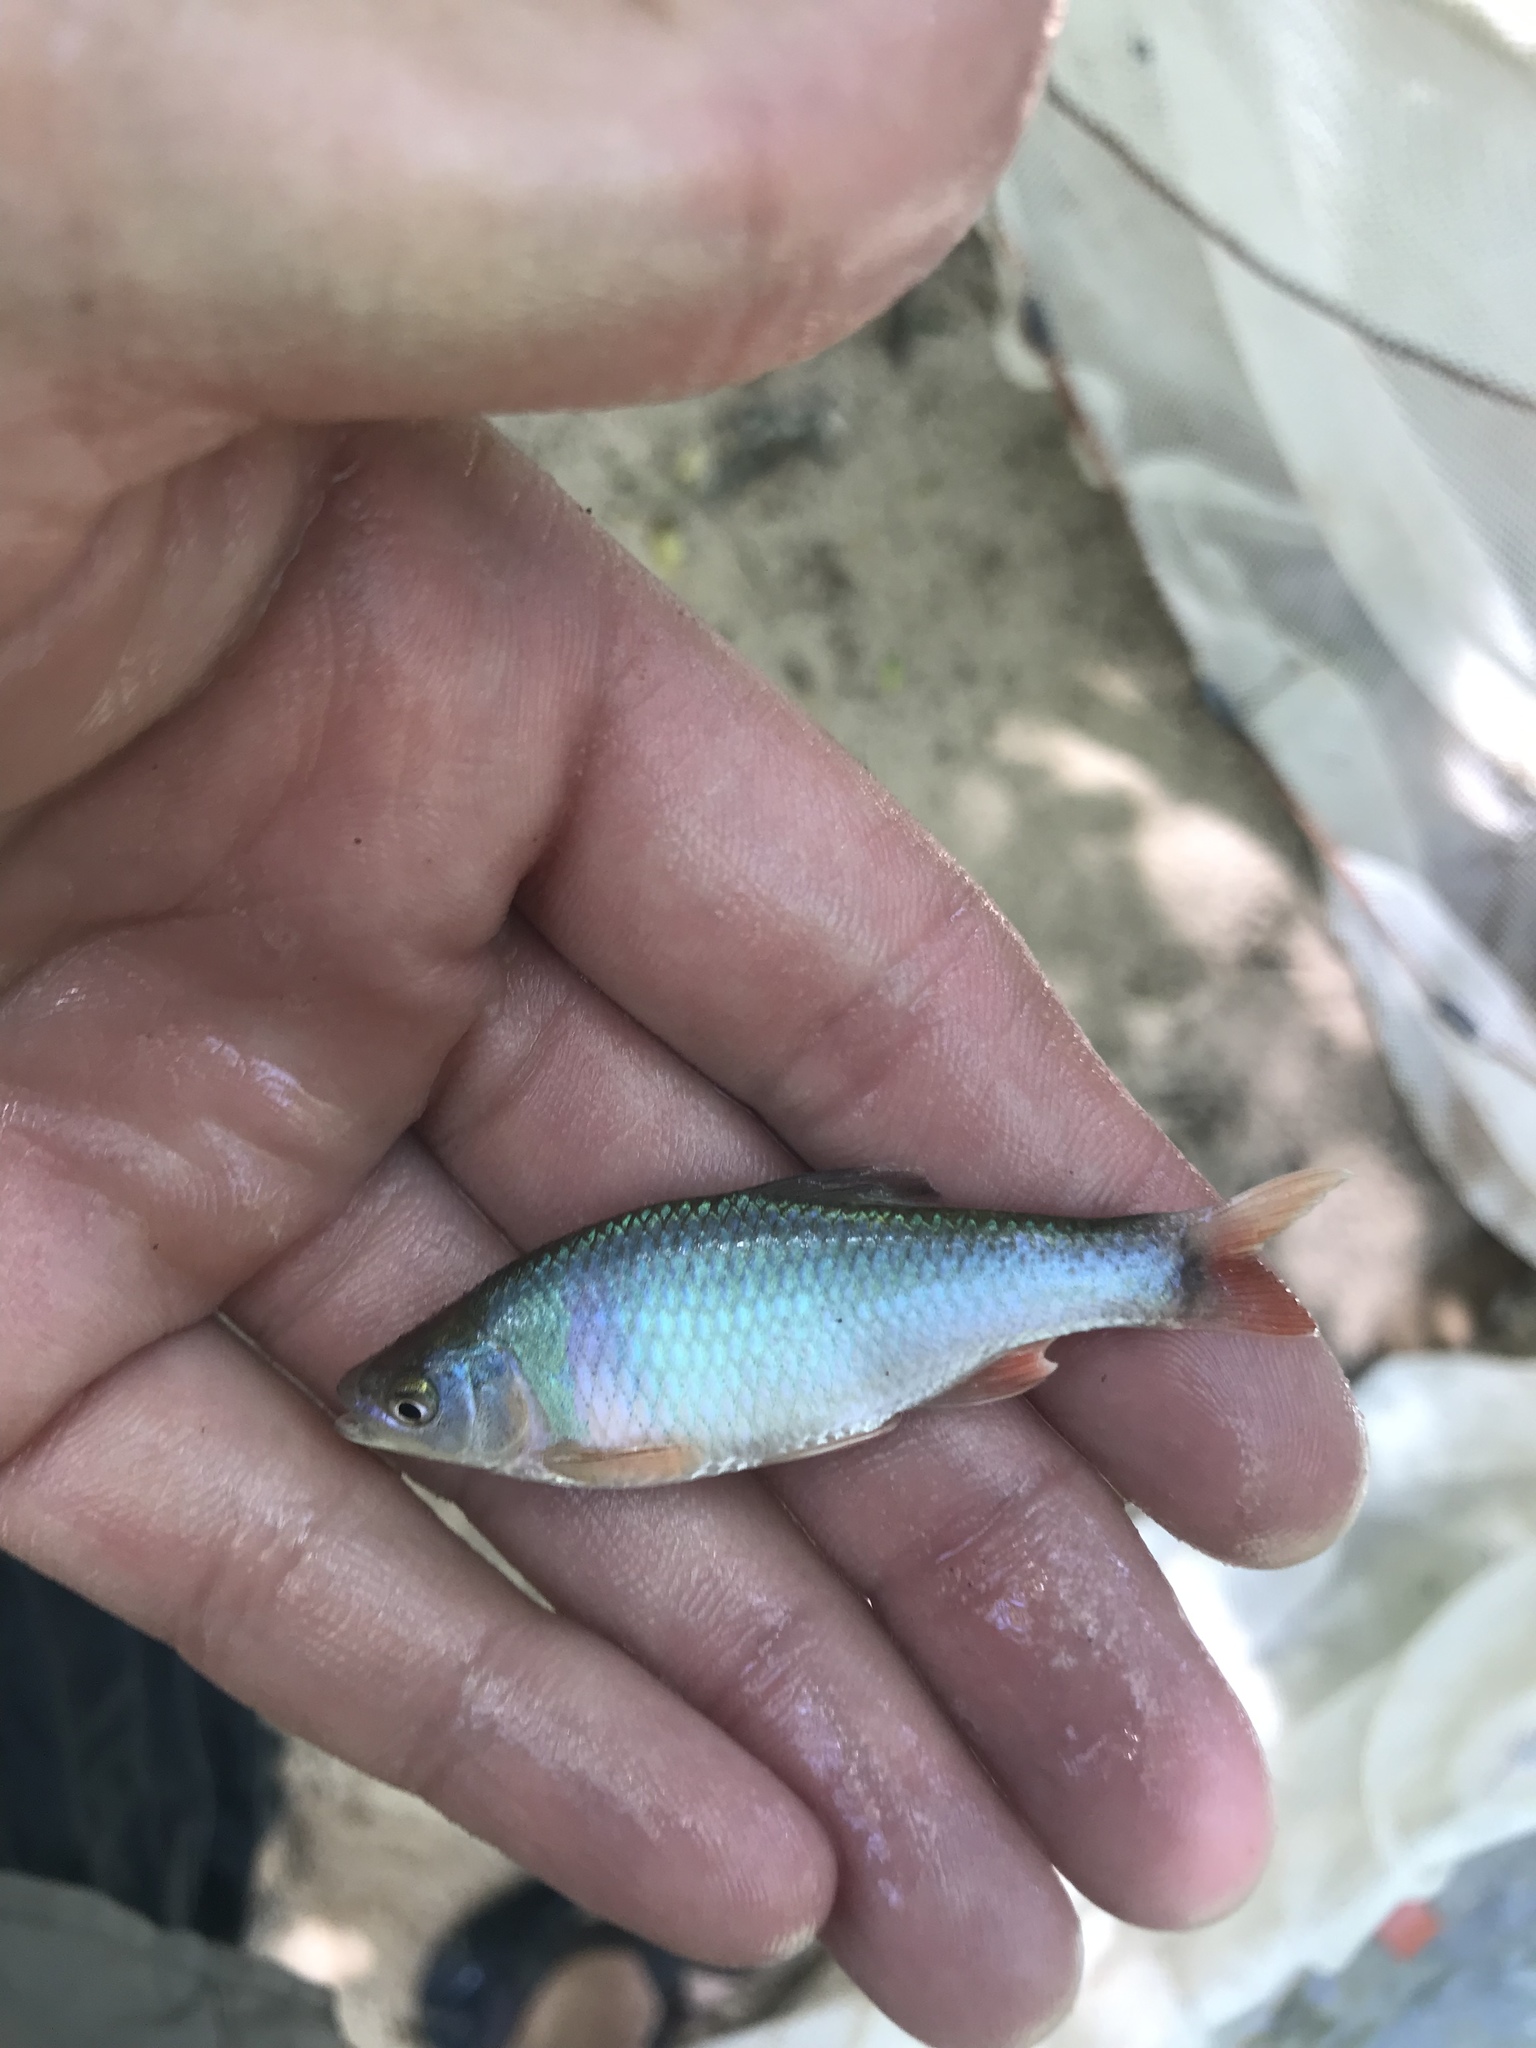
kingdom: Animalia
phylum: Chordata
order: Cypriniformes
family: Cyprinidae
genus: Cyprinella
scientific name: Cyprinella lutrensis
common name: Red shiner
